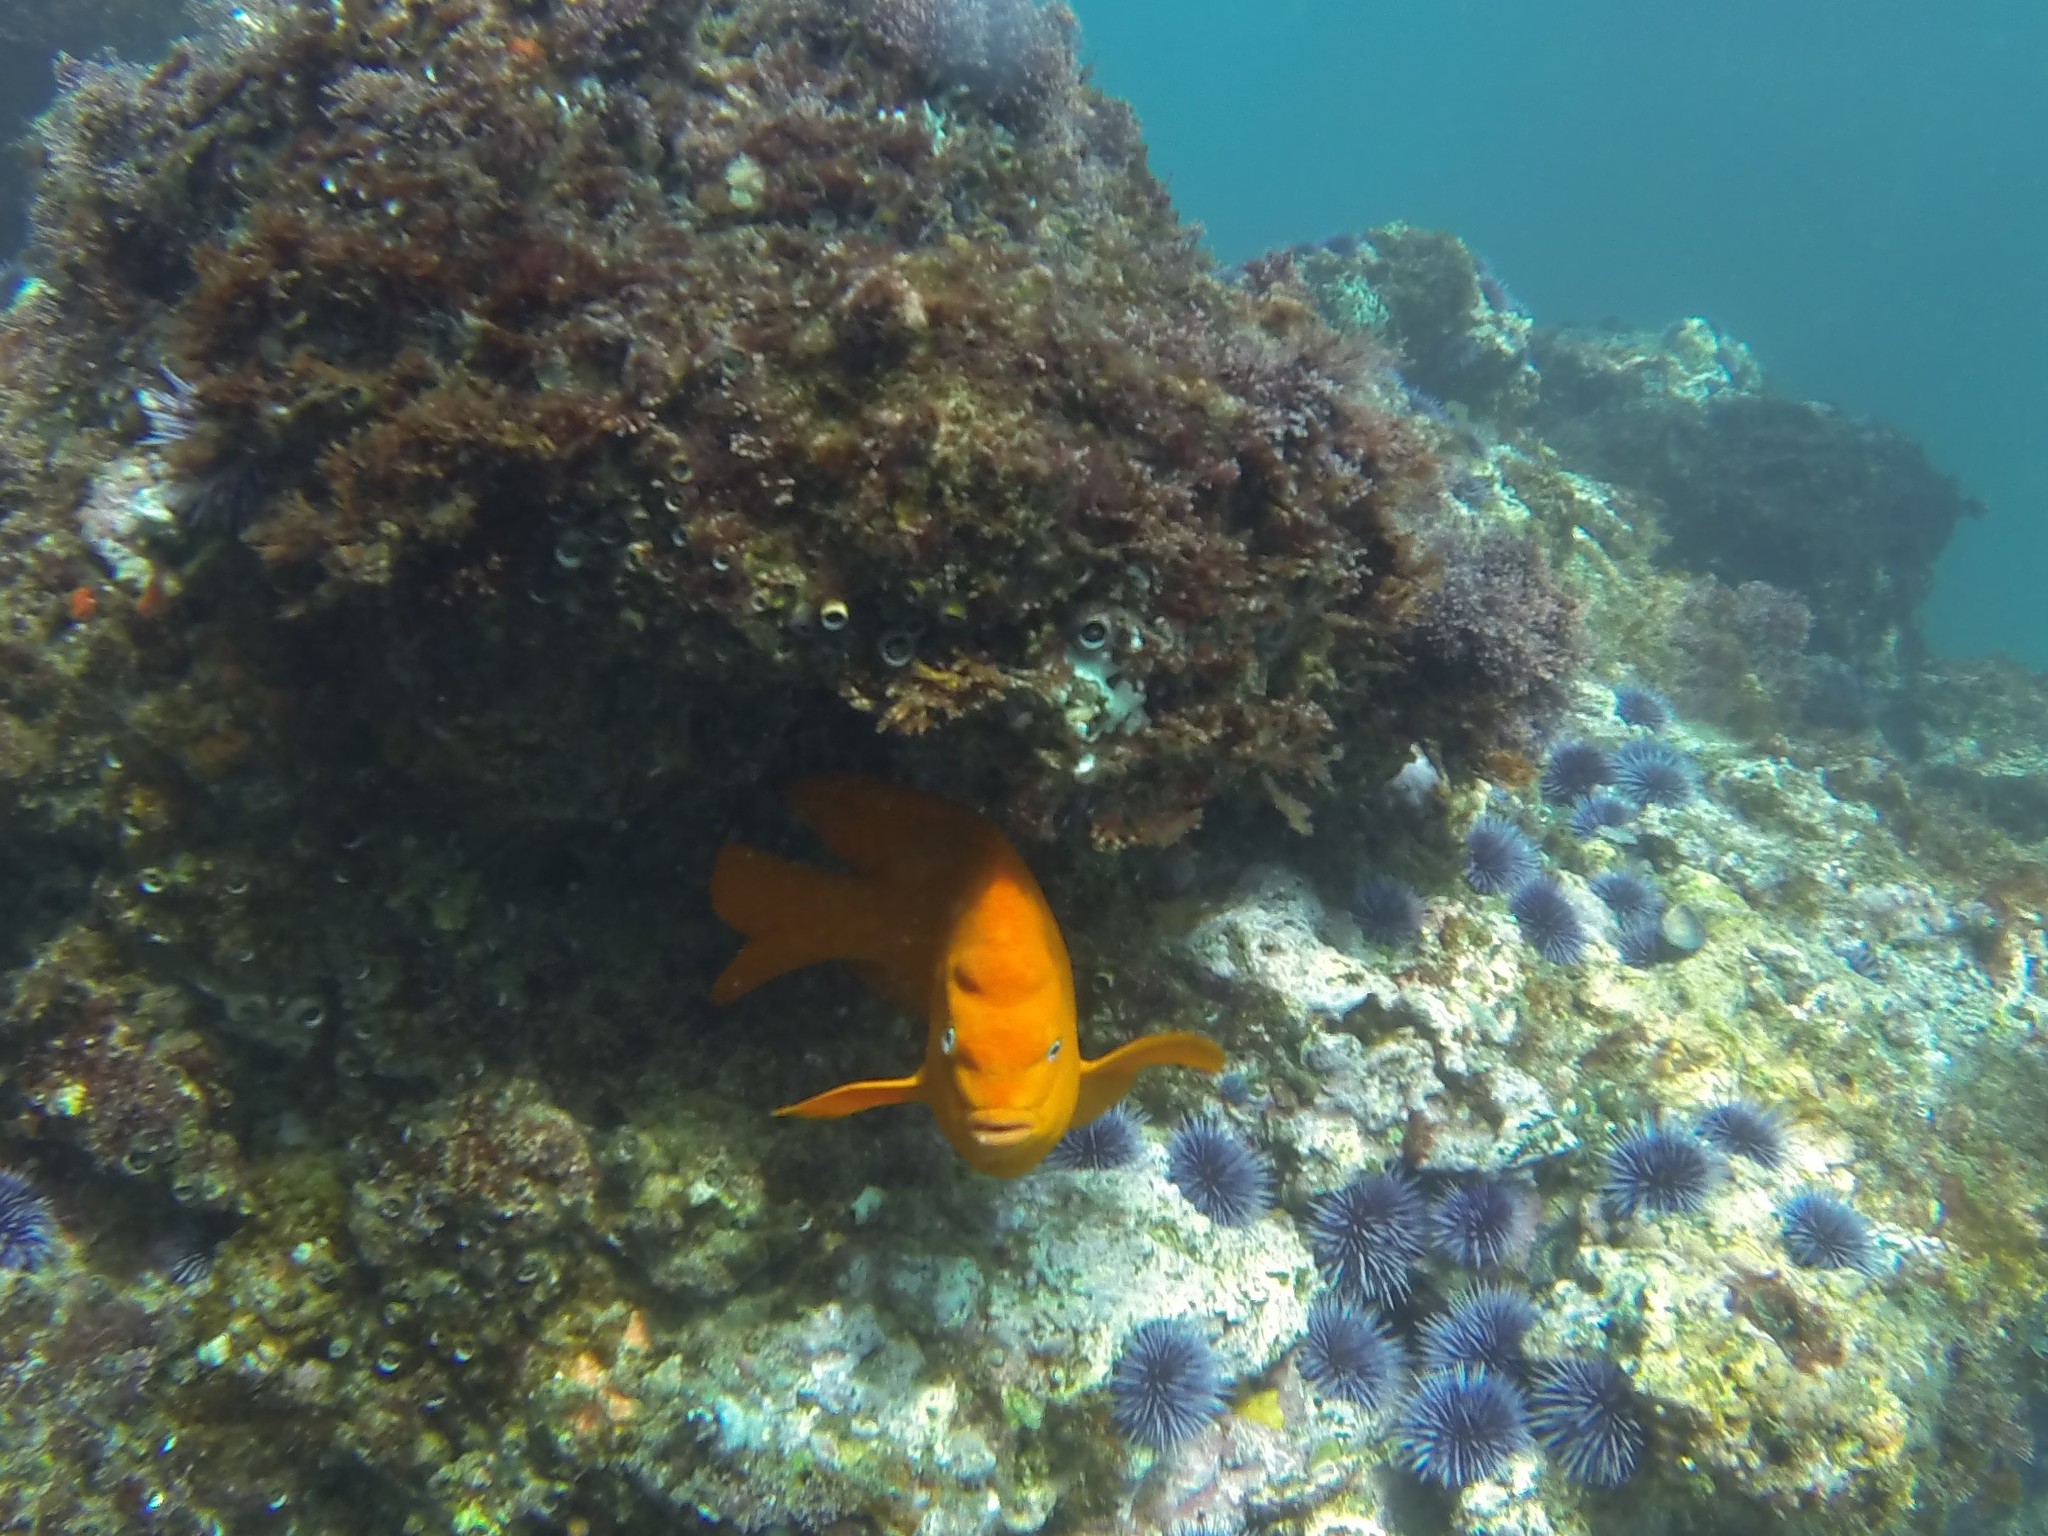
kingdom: Animalia
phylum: Chordata
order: Perciformes
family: Pomacentridae
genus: Hypsypops
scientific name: Hypsypops rubicundus
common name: Garibaldi
